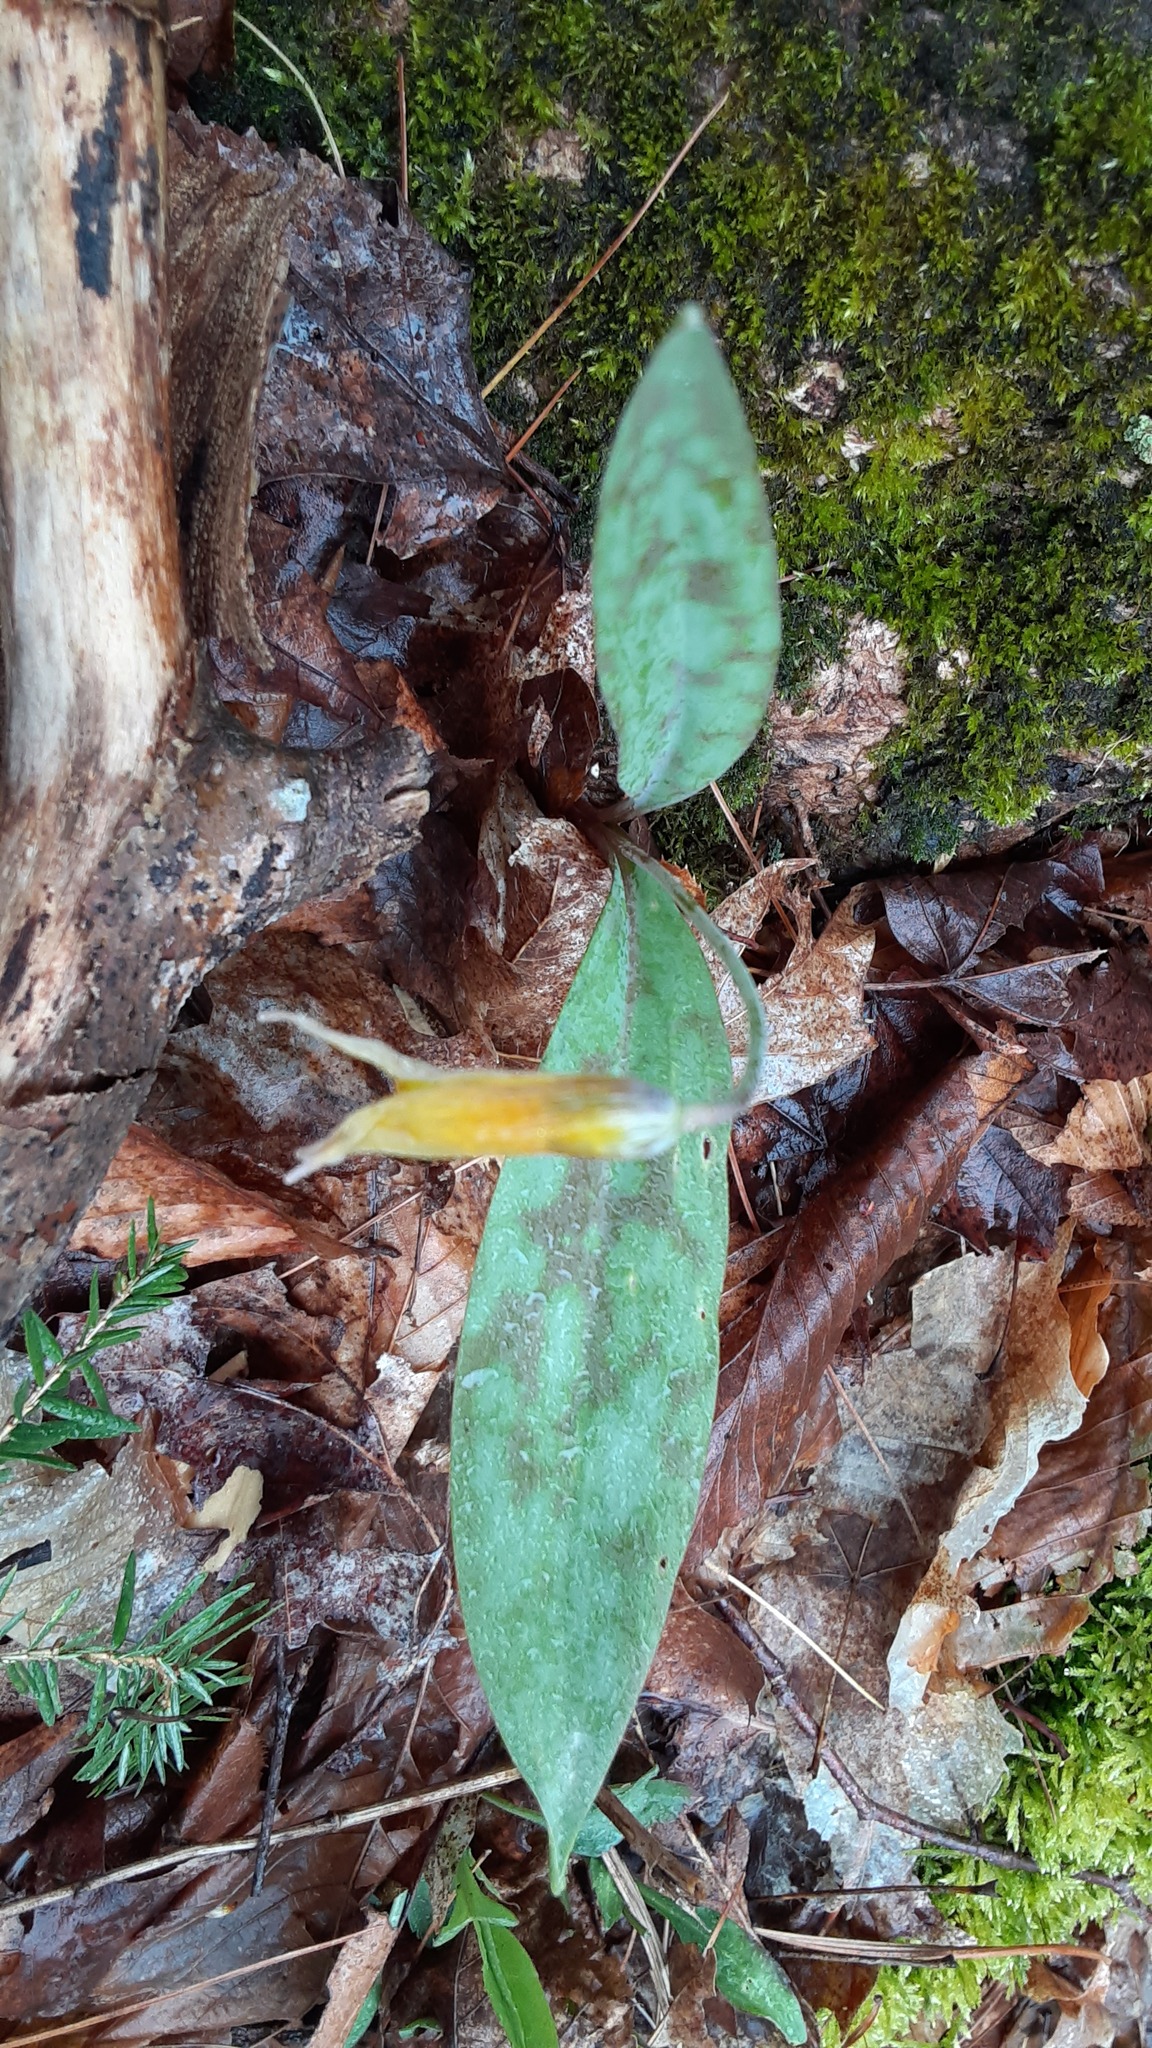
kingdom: Plantae
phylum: Tracheophyta
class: Liliopsida
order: Liliales
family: Liliaceae
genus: Erythronium
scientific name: Erythronium americanum
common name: Yellow adder's-tongue
